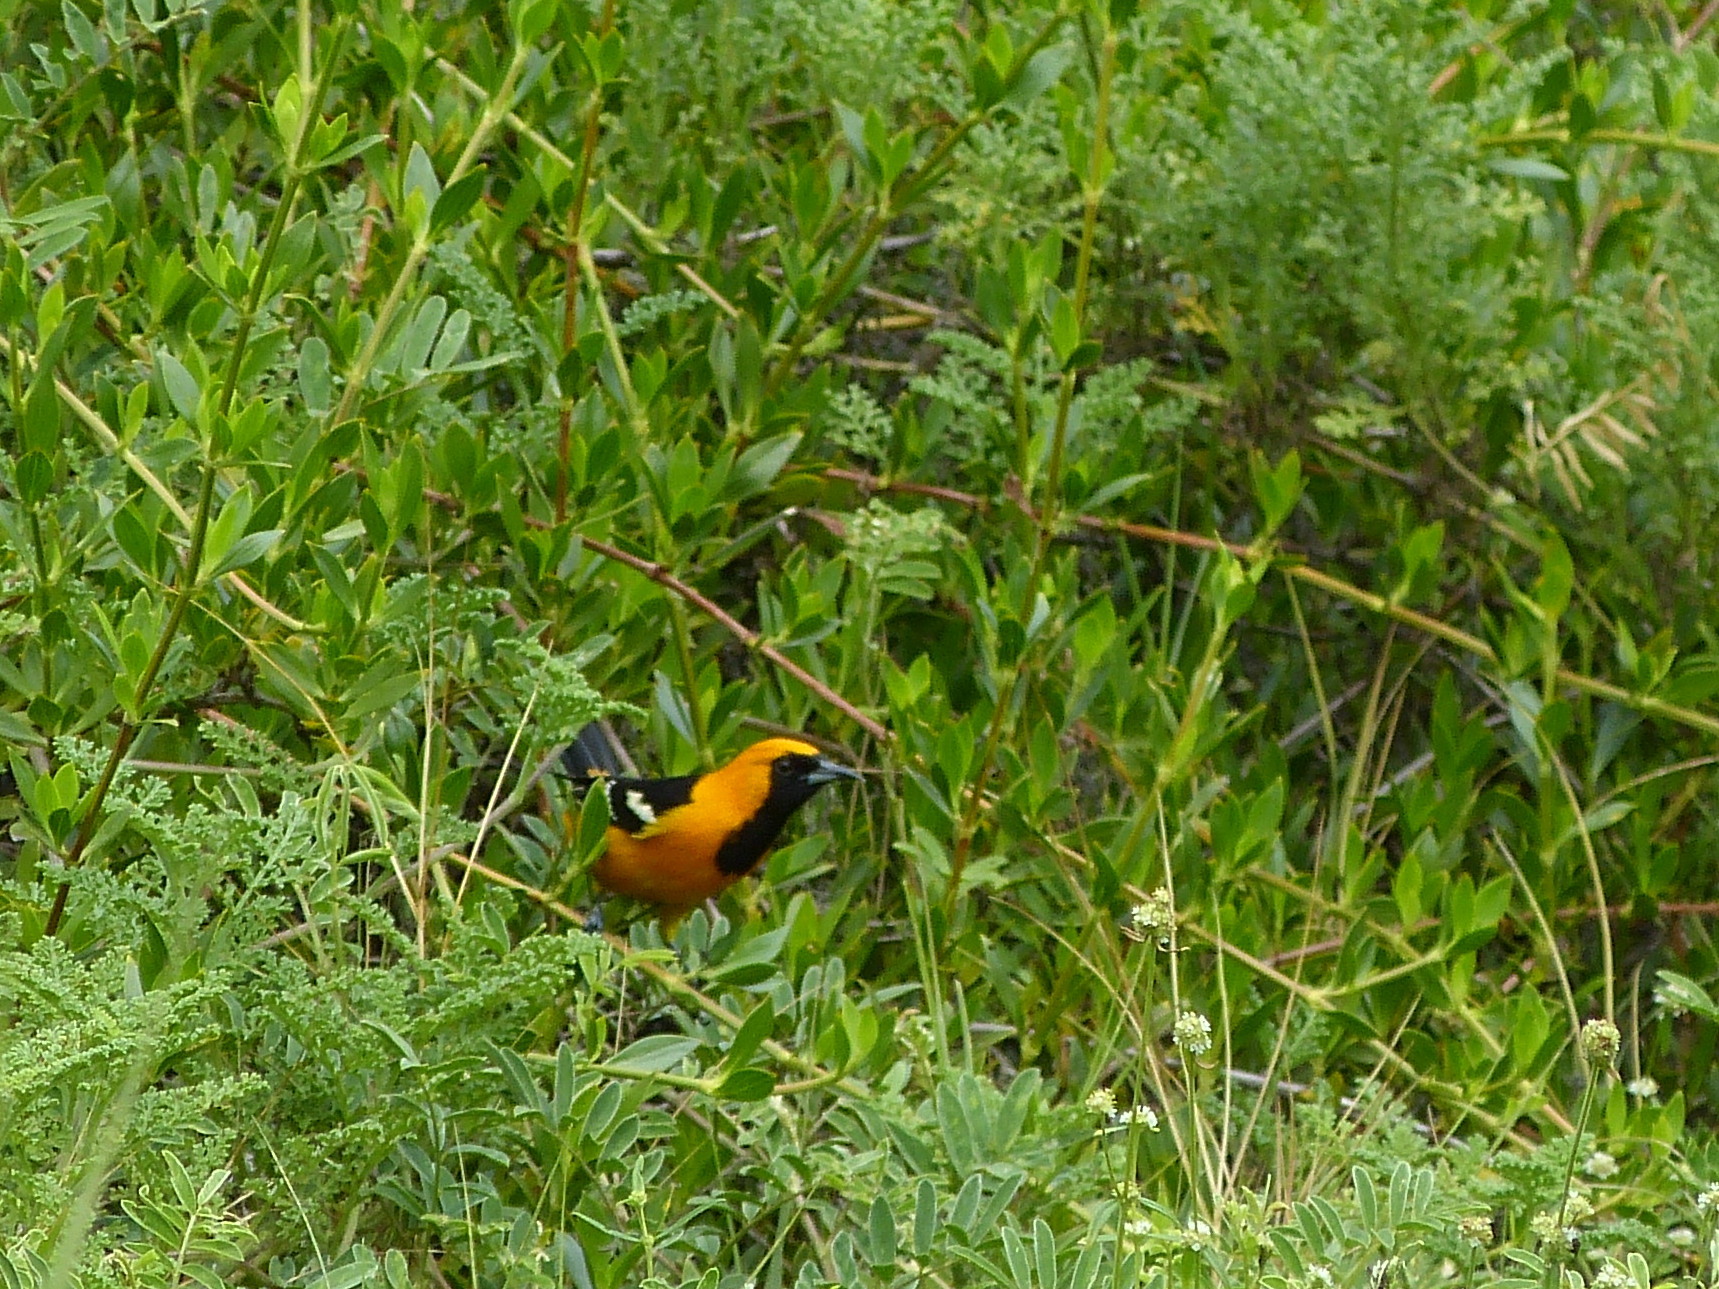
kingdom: Animalia
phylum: Chordata
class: Aves
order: Passeriformes
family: Icteridae
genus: Icterus
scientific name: Icterus cucullatus
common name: Hooded oriole
